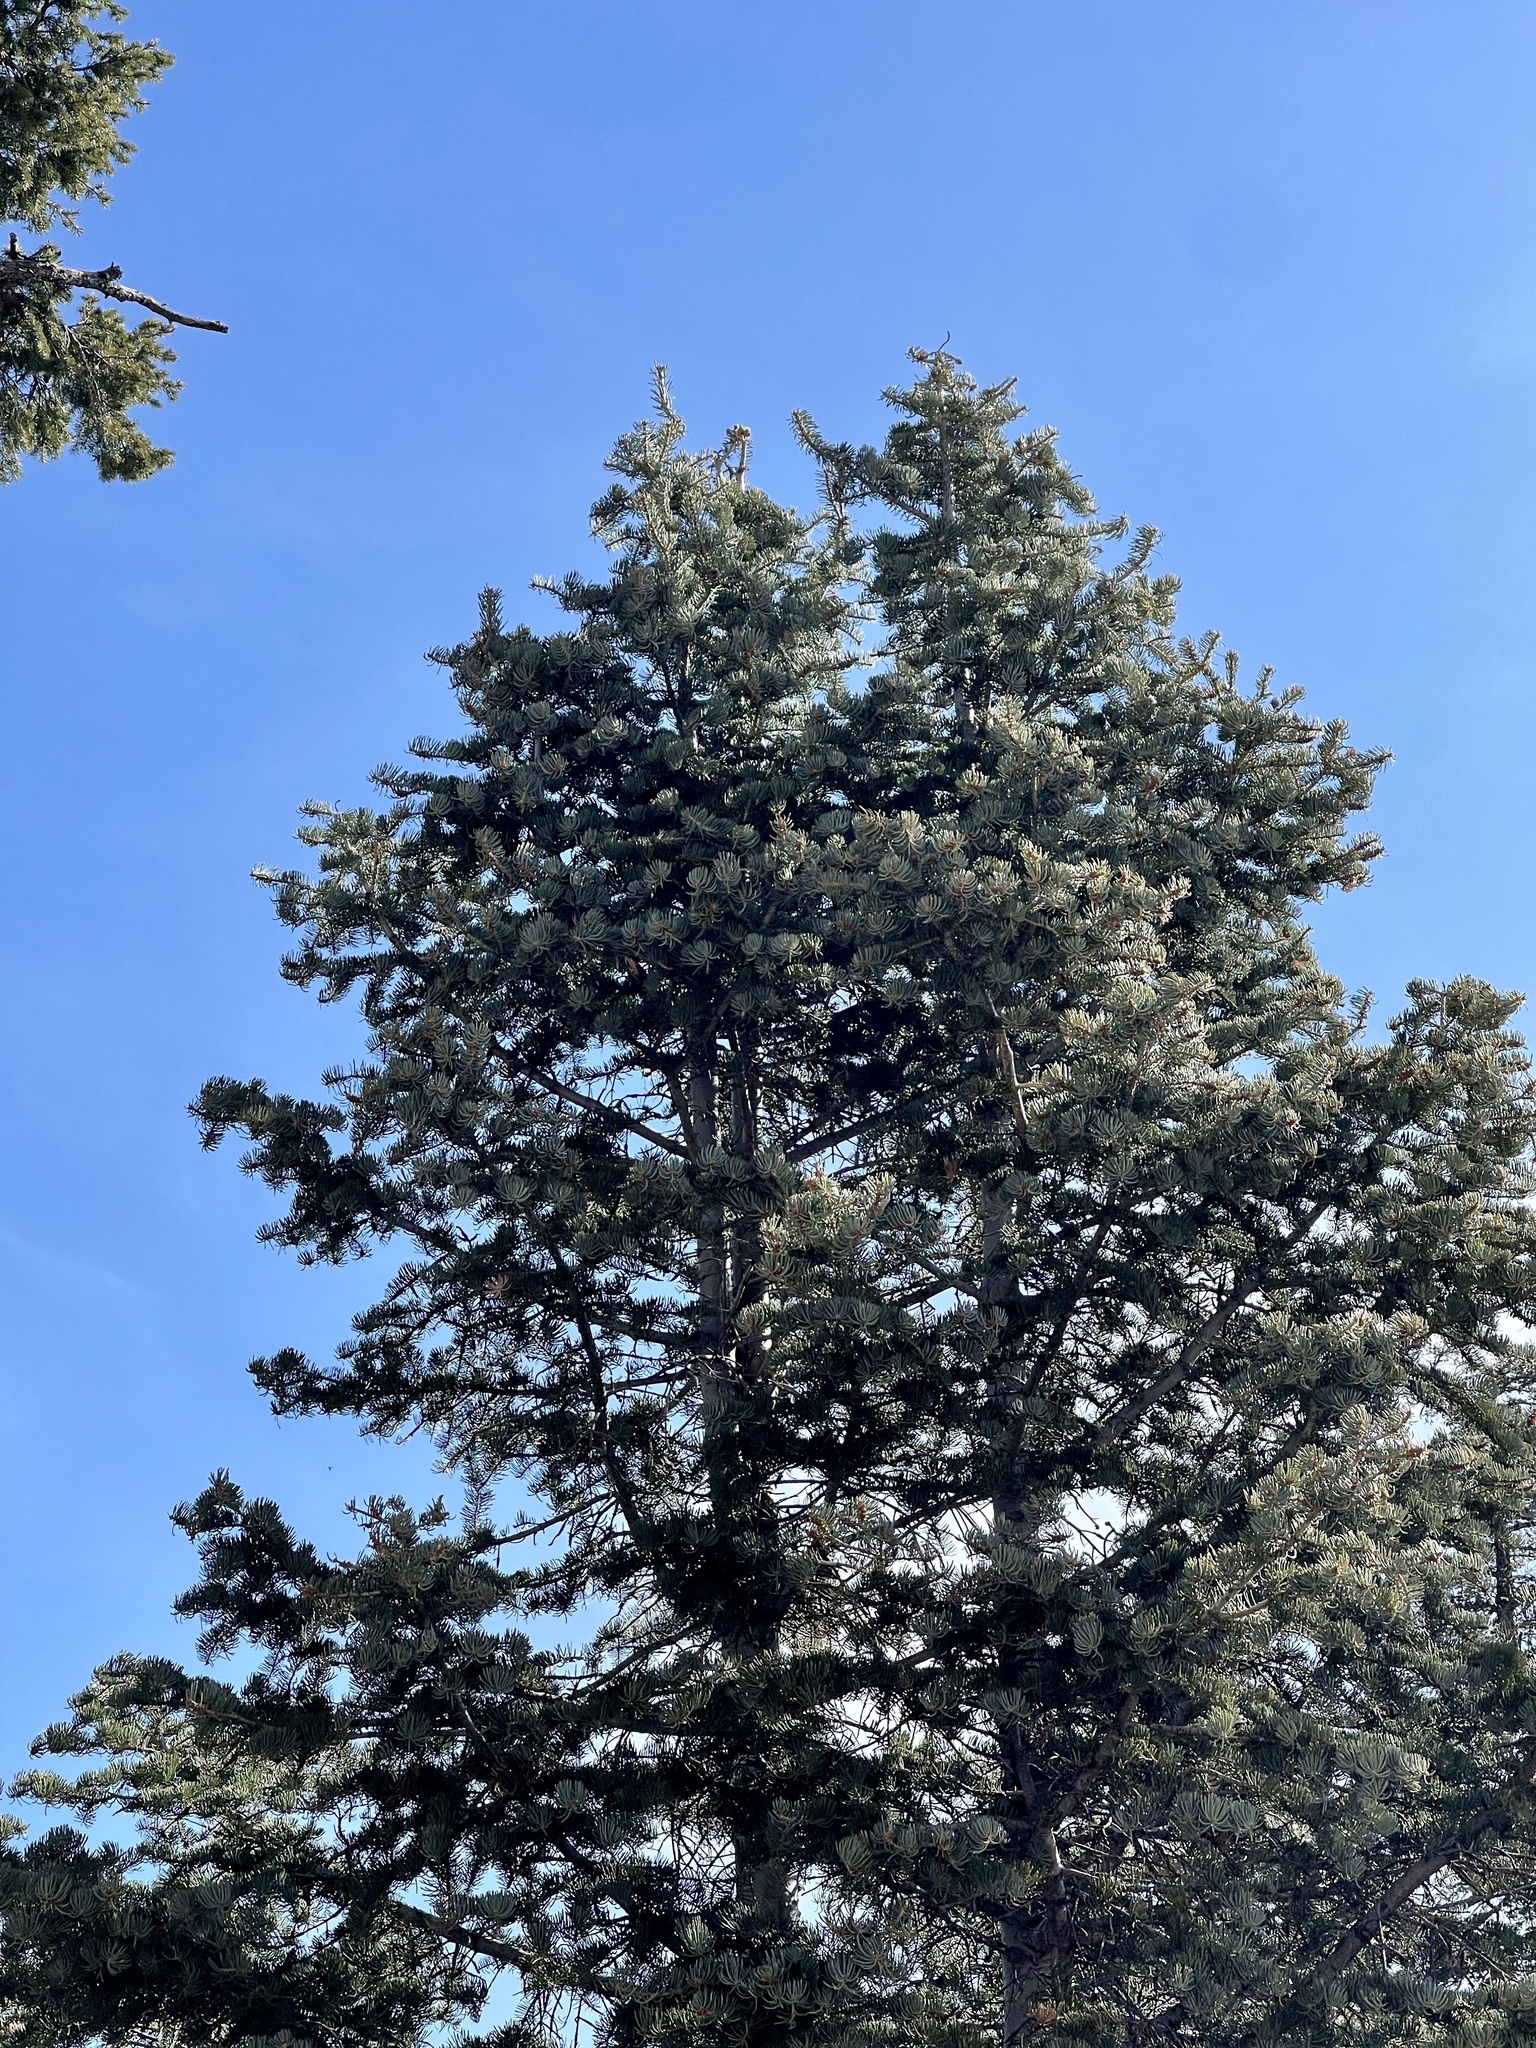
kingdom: Plantae
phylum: Tracheophyta
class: Pinopsida
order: Pinales
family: Pinaceae
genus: Abies
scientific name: Abies concolor
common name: Colorado fir
